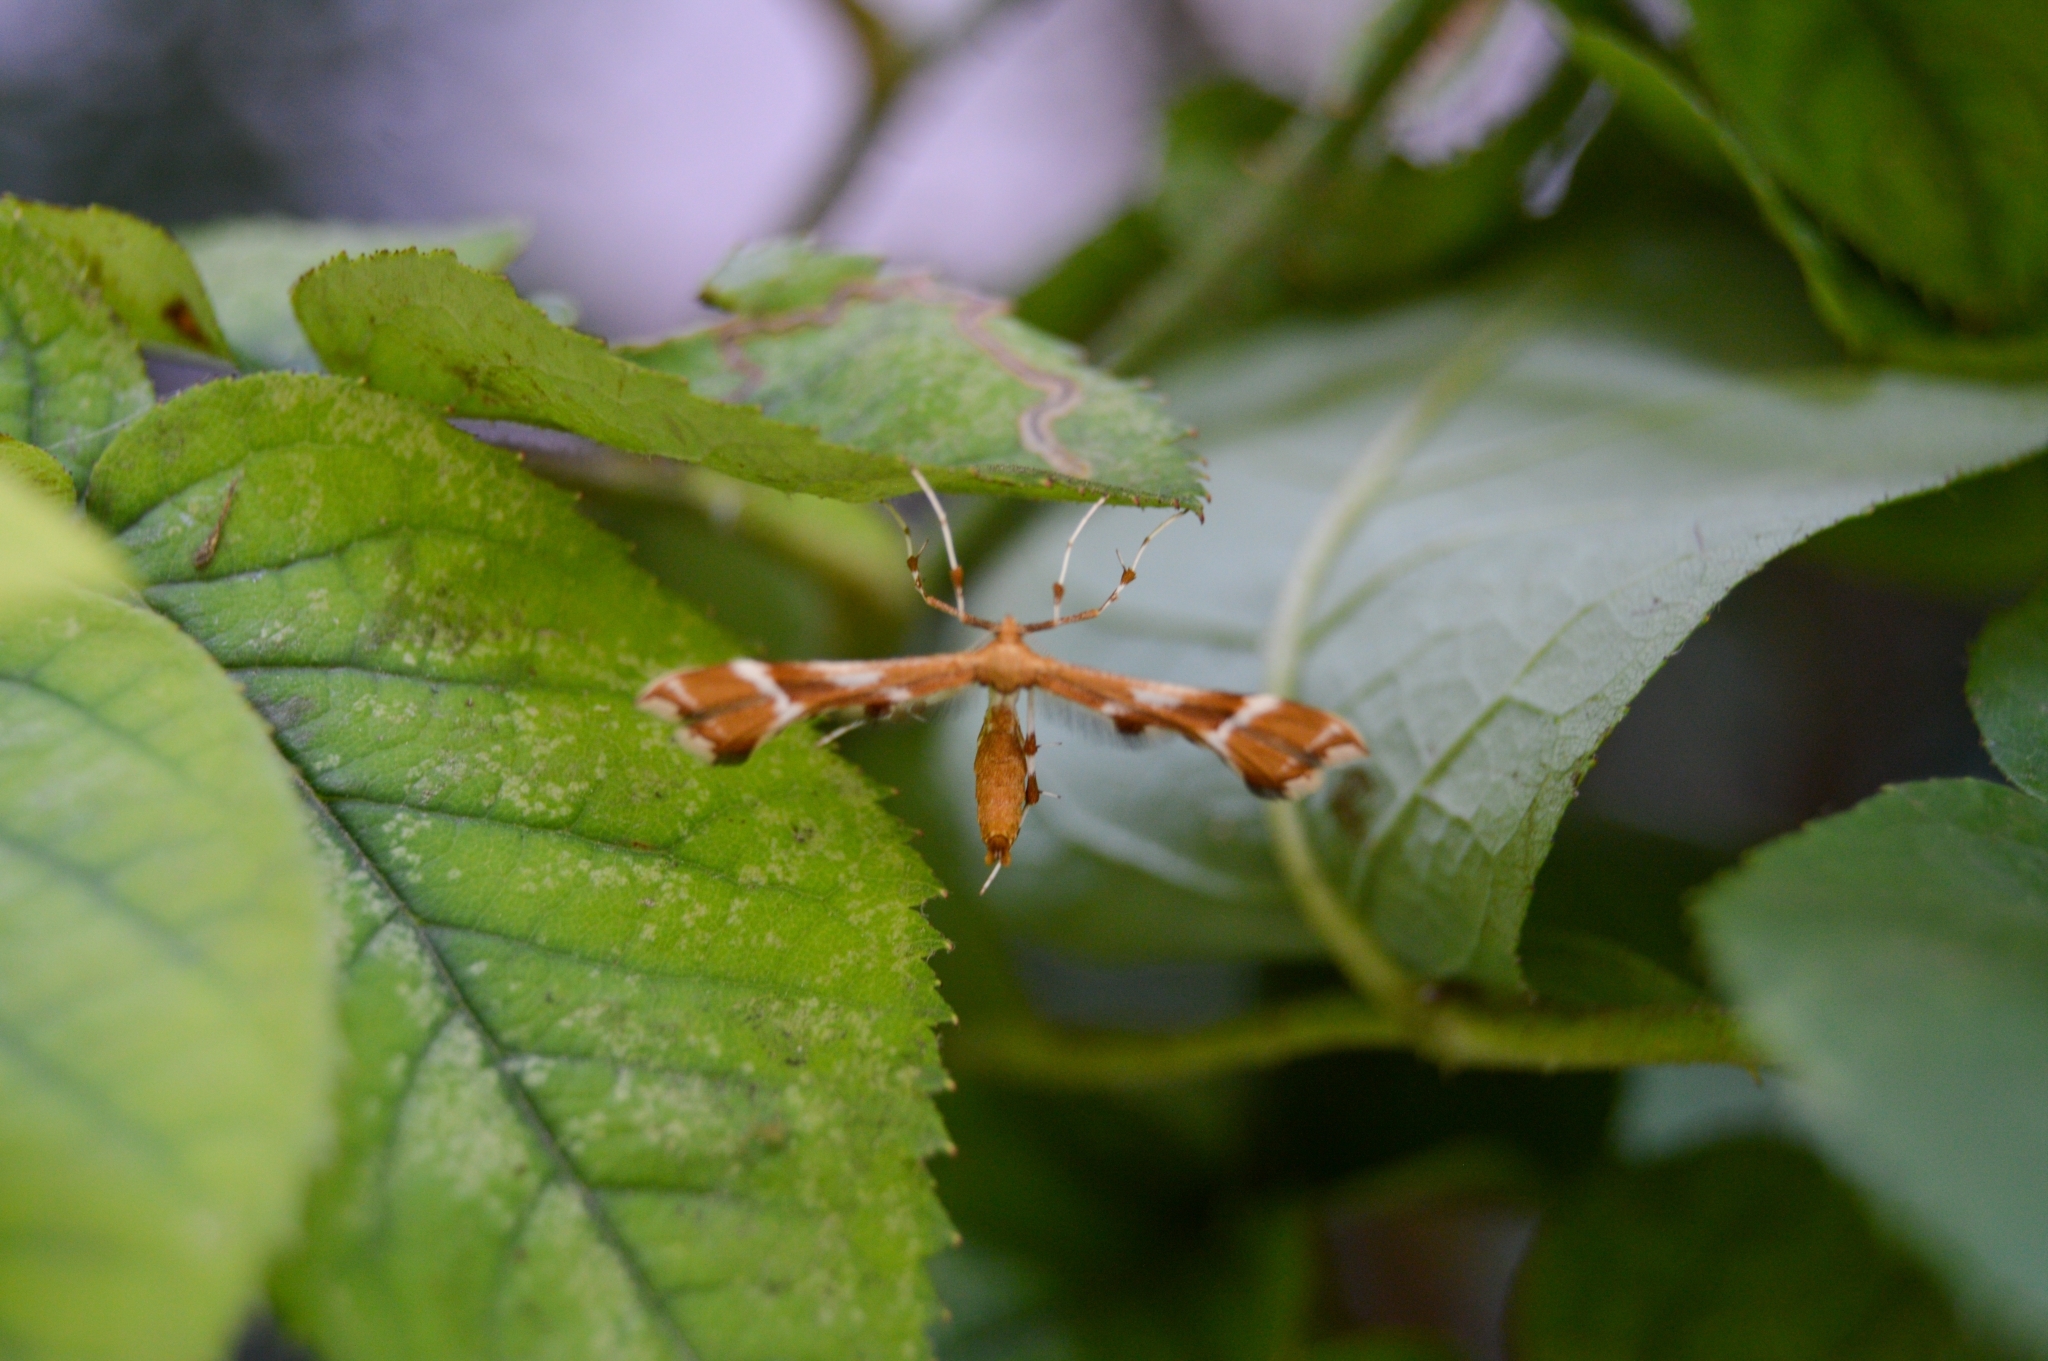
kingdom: Animalia
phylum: Arthropoda
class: Insecta
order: Lepidoptera
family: Pterophoridae
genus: Cnaemidophorus
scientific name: Cnaemidophorus rhododactyla
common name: Rose plume
